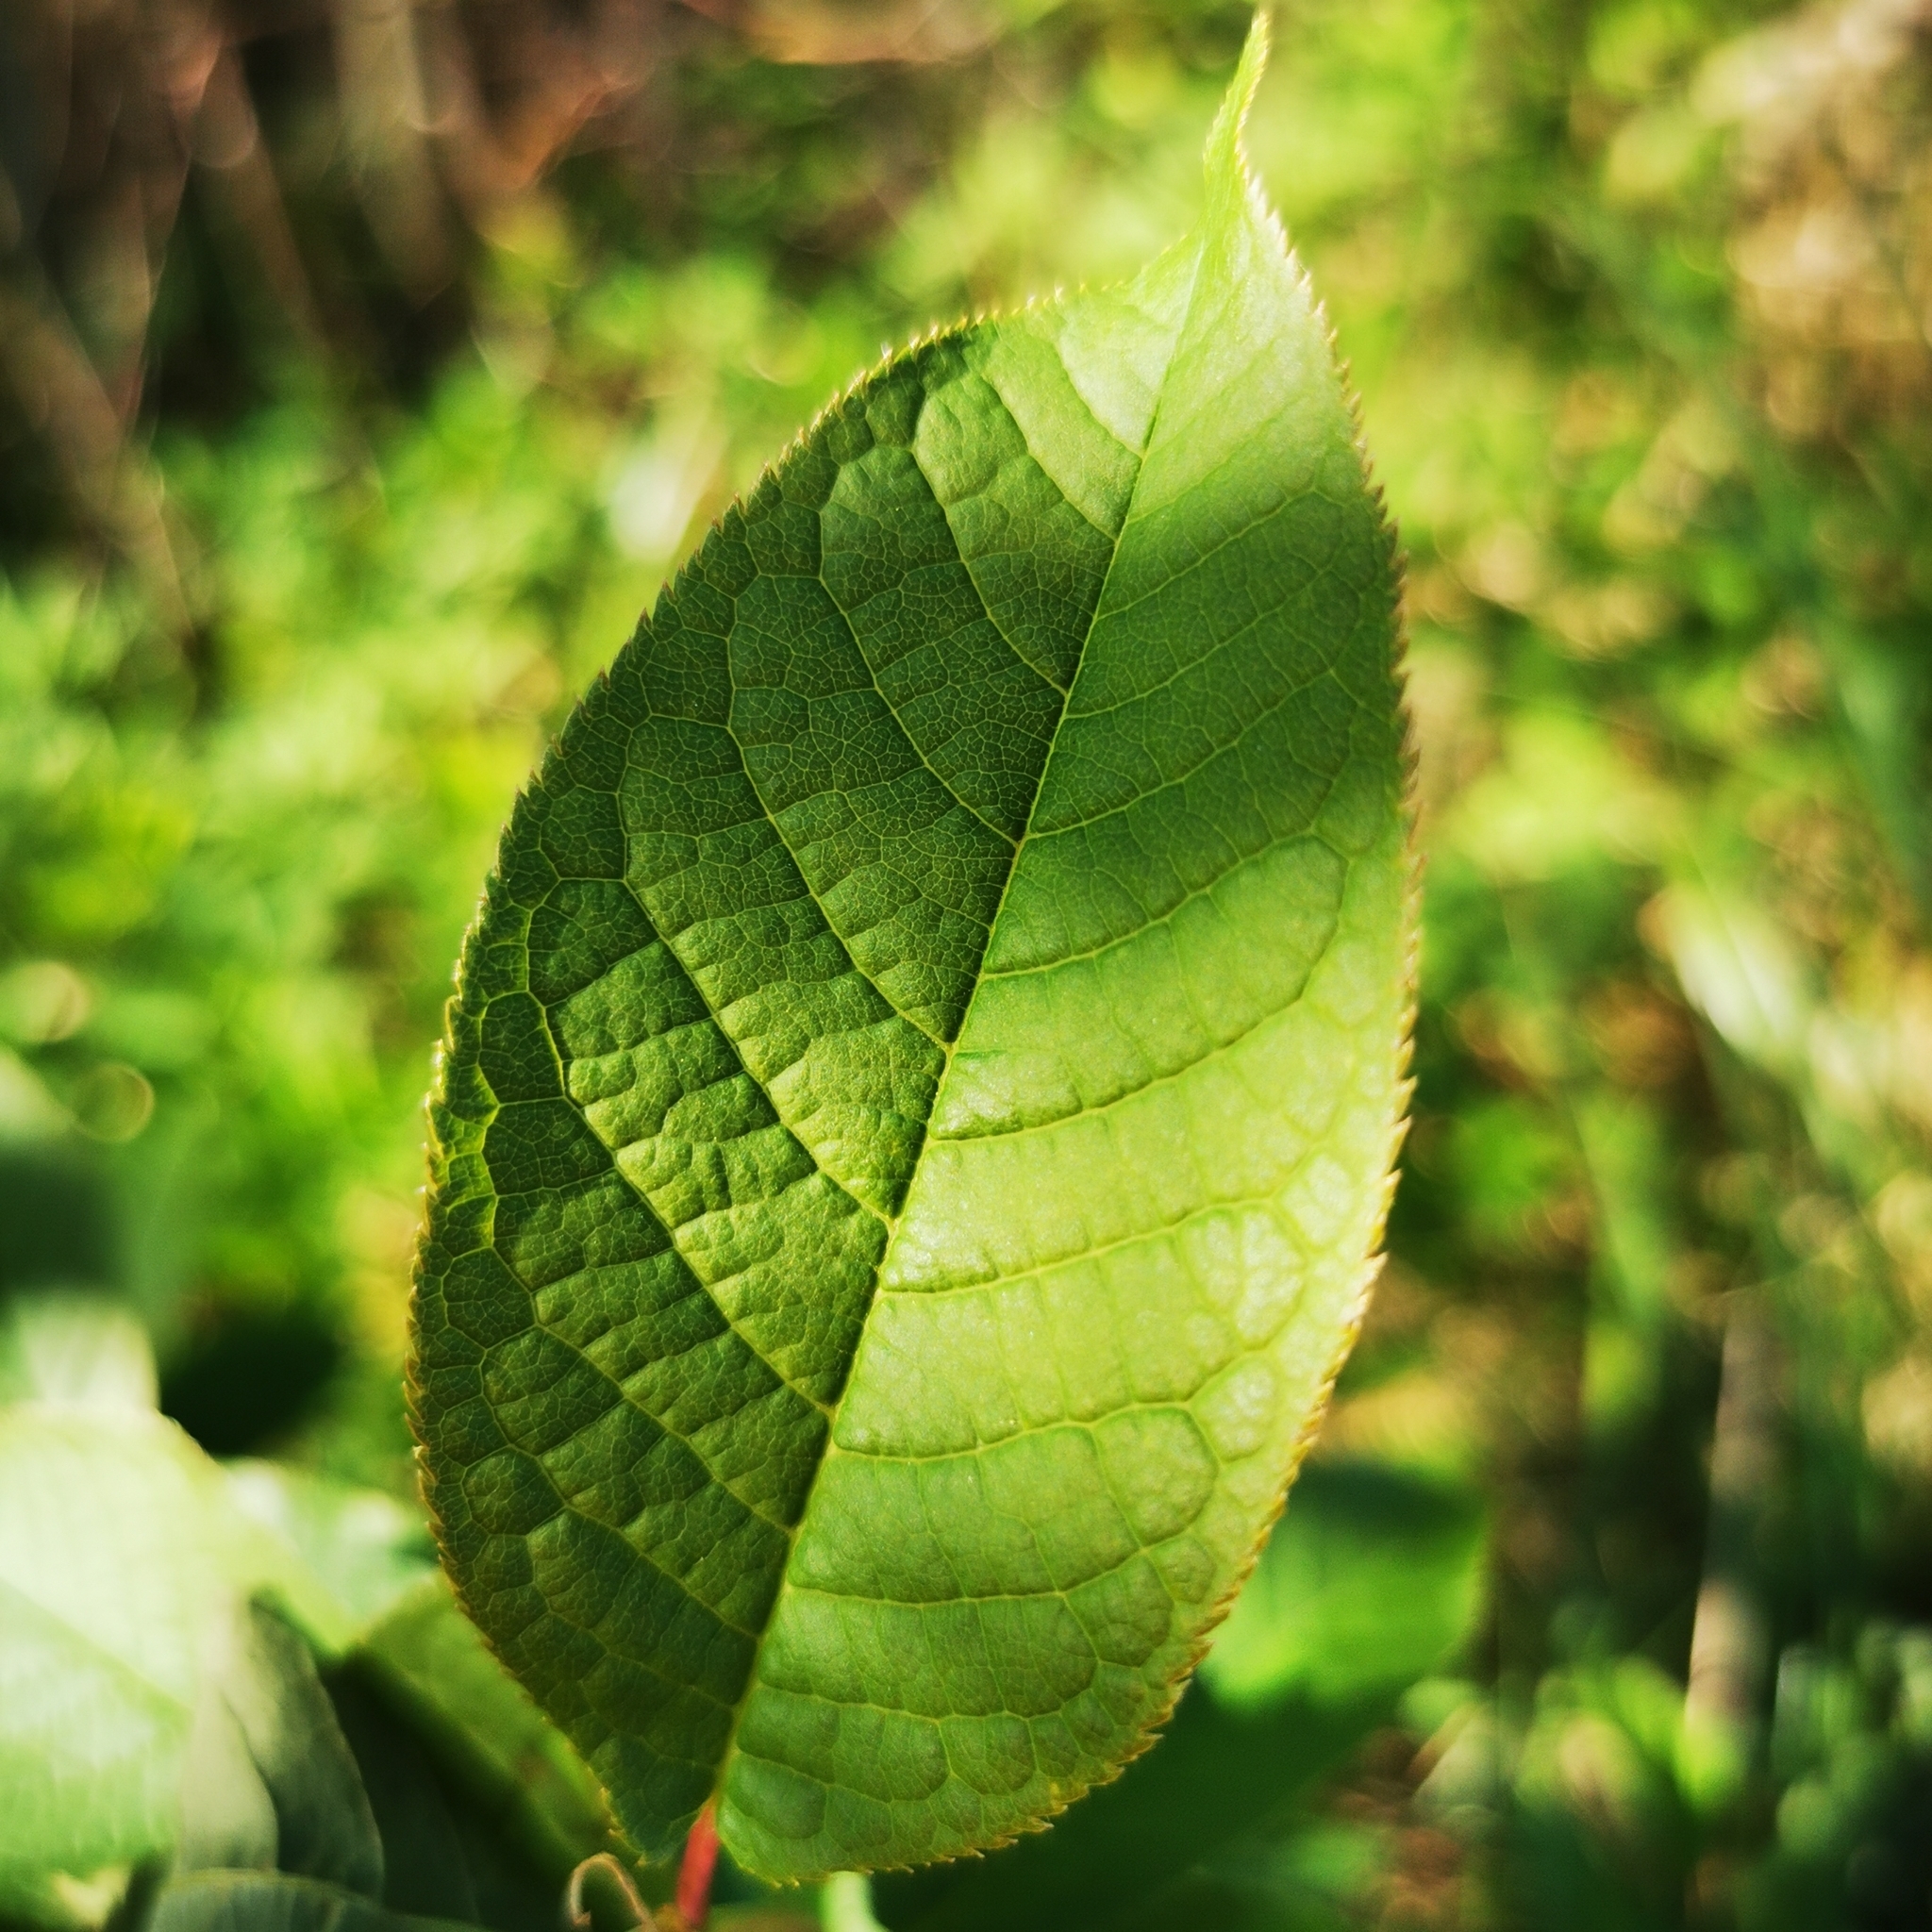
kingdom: Plantae
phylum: Tracheophyta
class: Magnoliopsida
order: Rosales
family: Rosaceae
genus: Prunus
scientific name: Prunus padus
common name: Bird cherry
